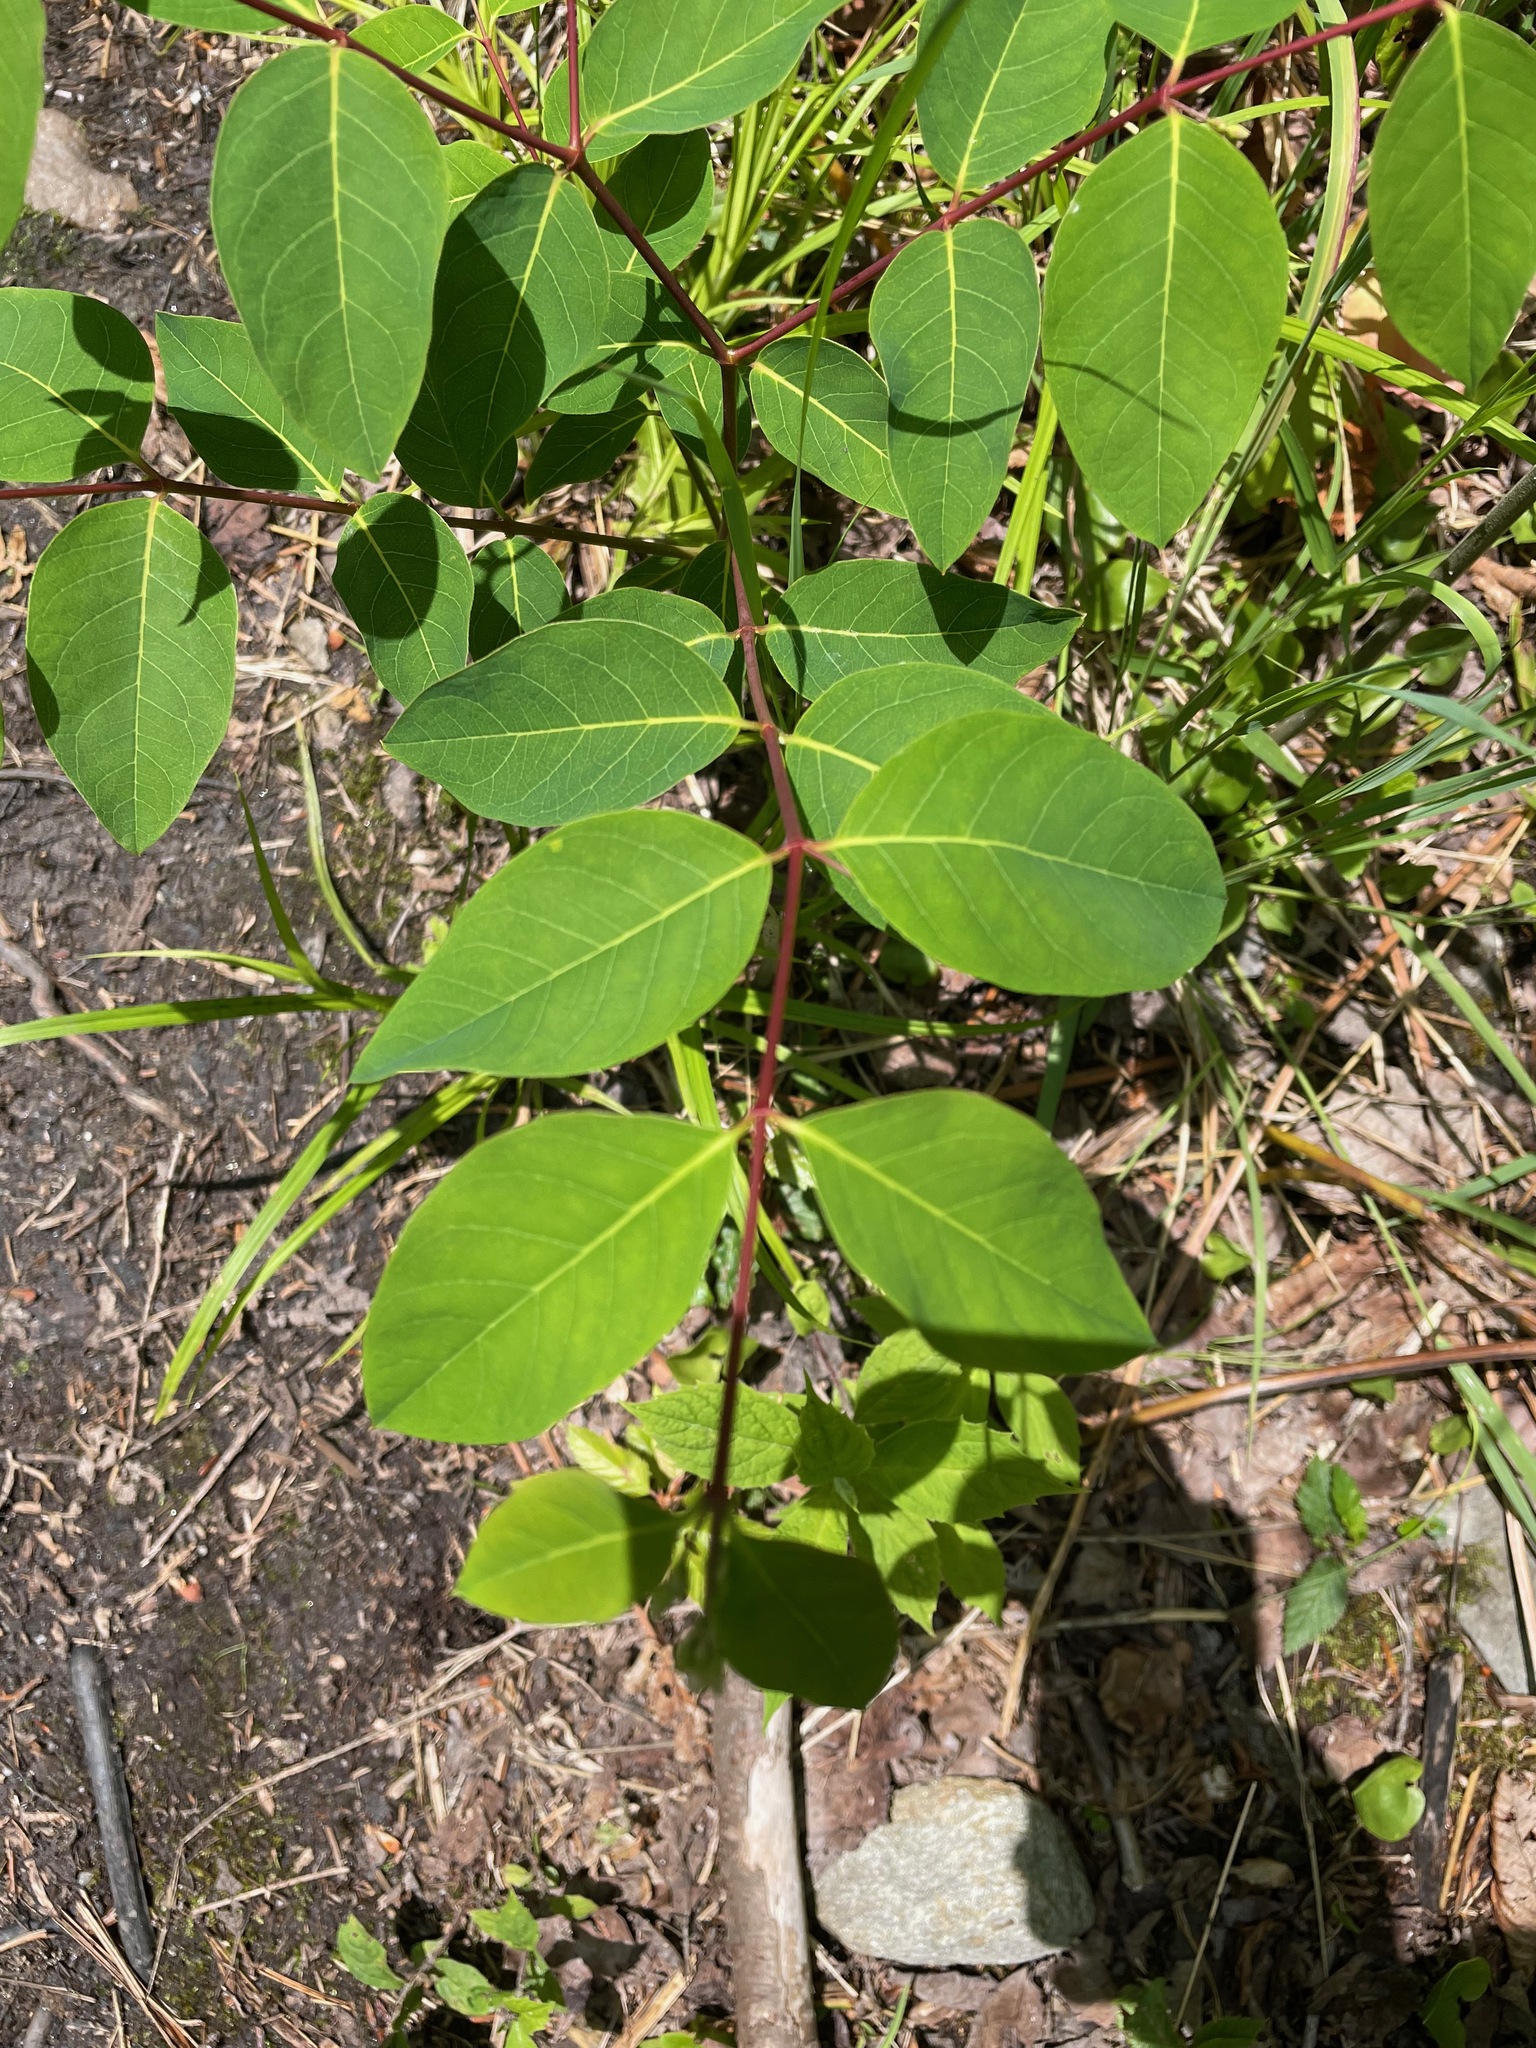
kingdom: Plantae
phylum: Tracheophyta
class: Magnoliopsida
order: Gentianales
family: Apocynaceae
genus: Apocynum
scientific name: Apocynum androsaemifolium
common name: Spreading dogbane
